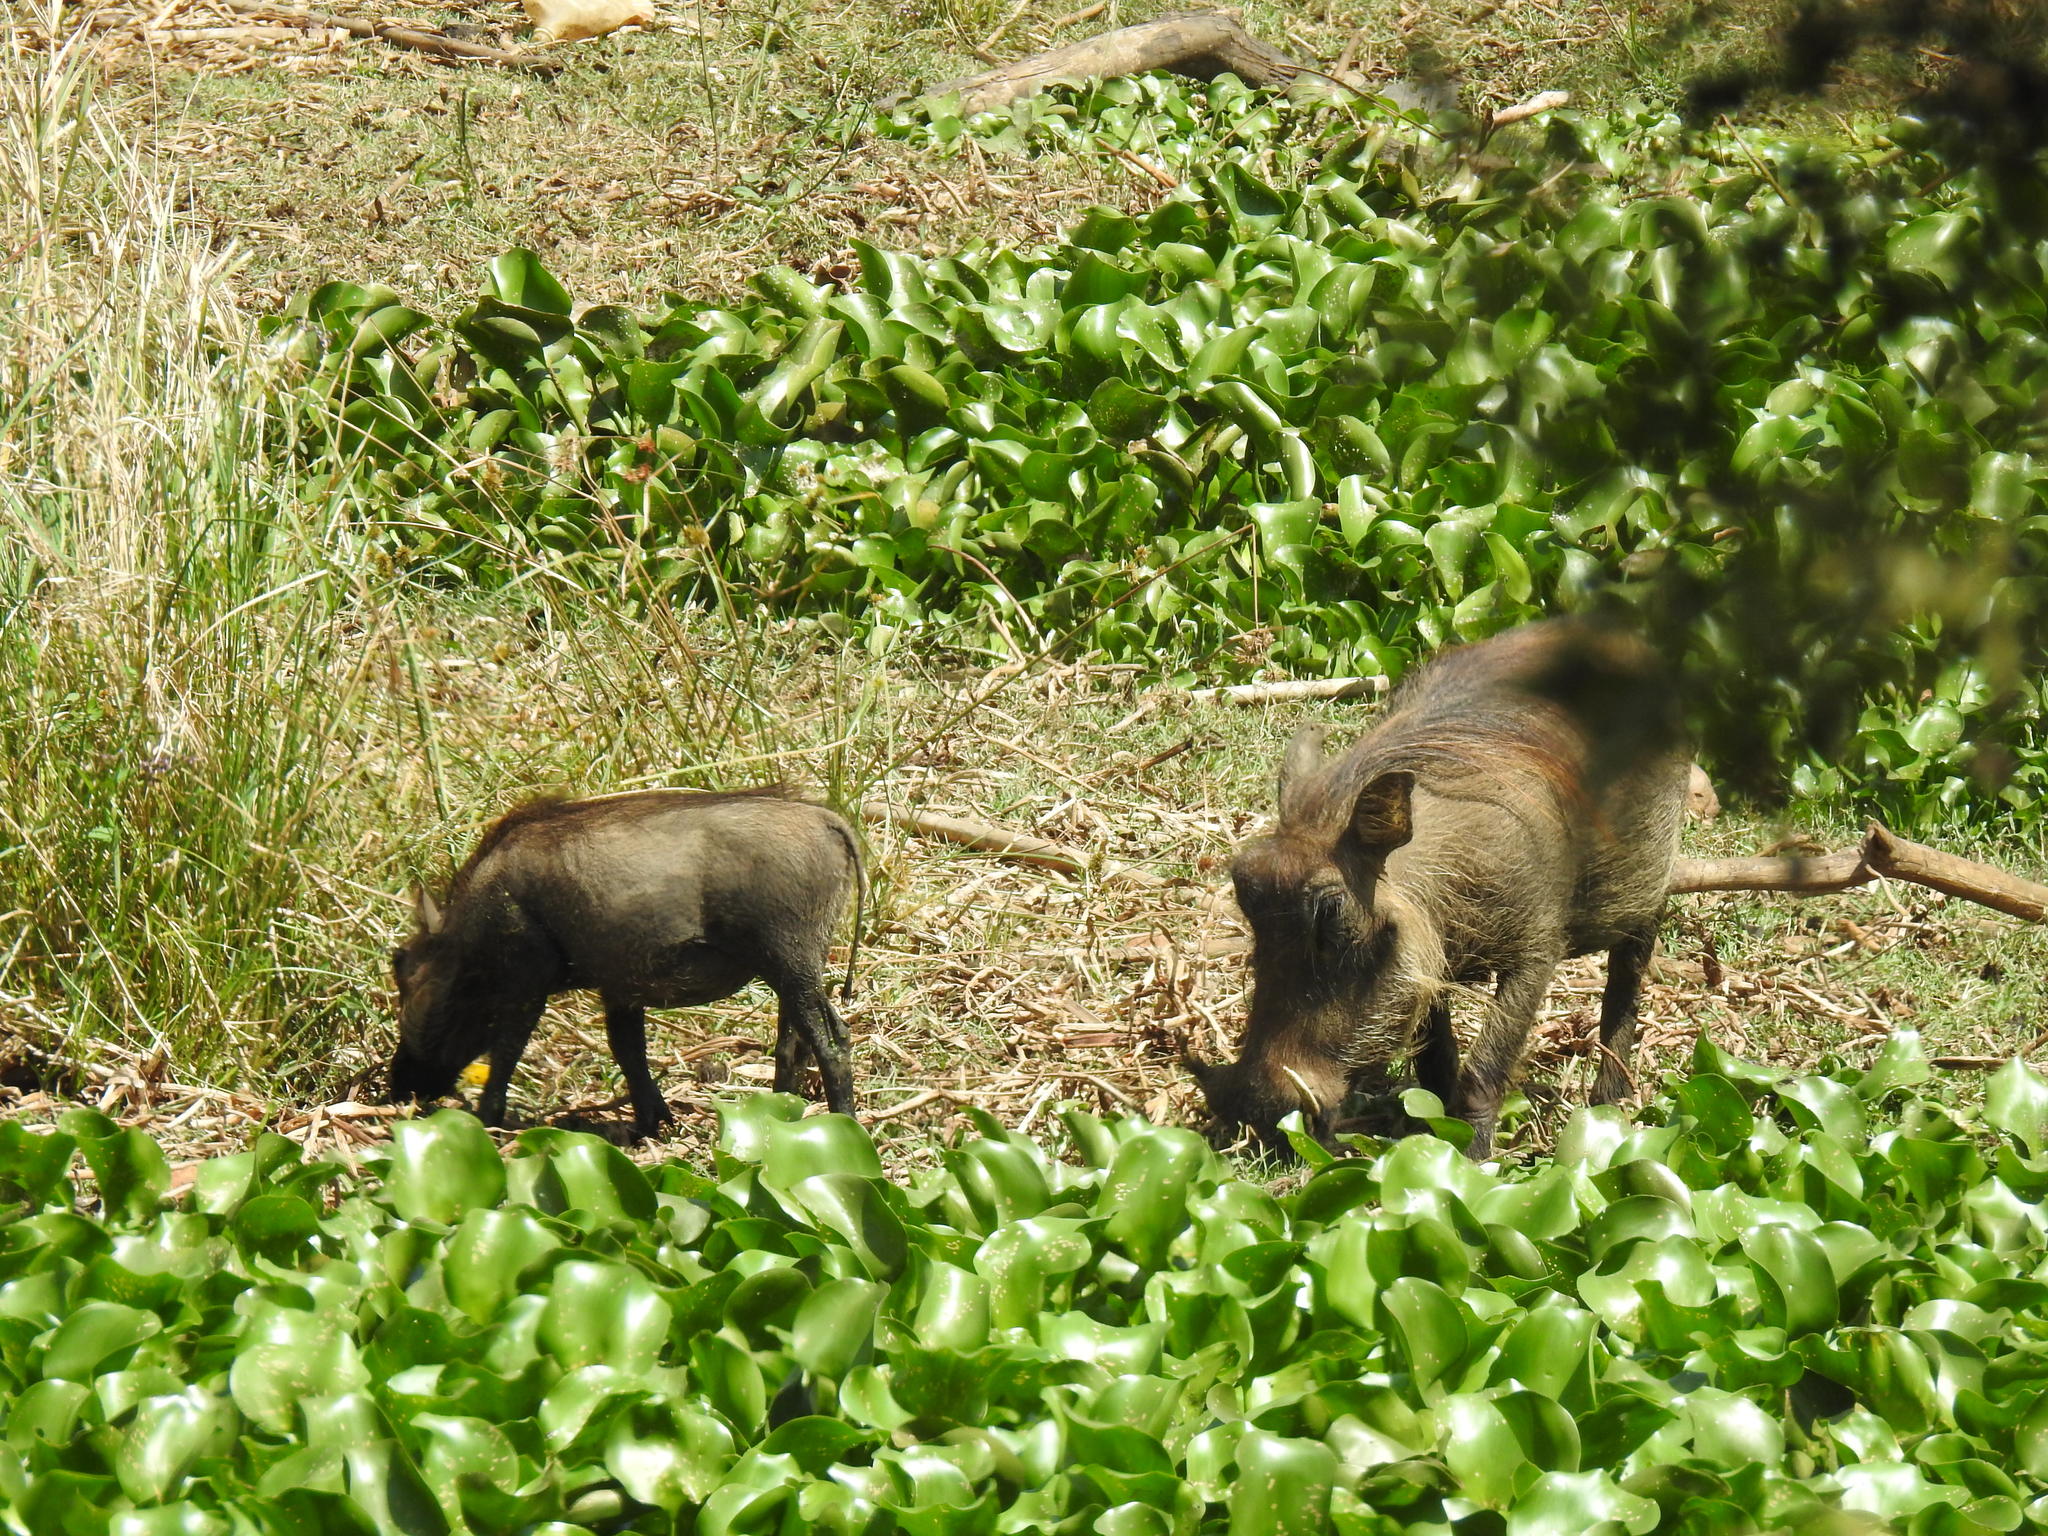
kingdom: Animalia
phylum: Chordata
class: Mammalia
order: Artiodactyla
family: Suidae
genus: Phacochoerus
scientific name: Phacochoerus africanus
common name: Common warthog
